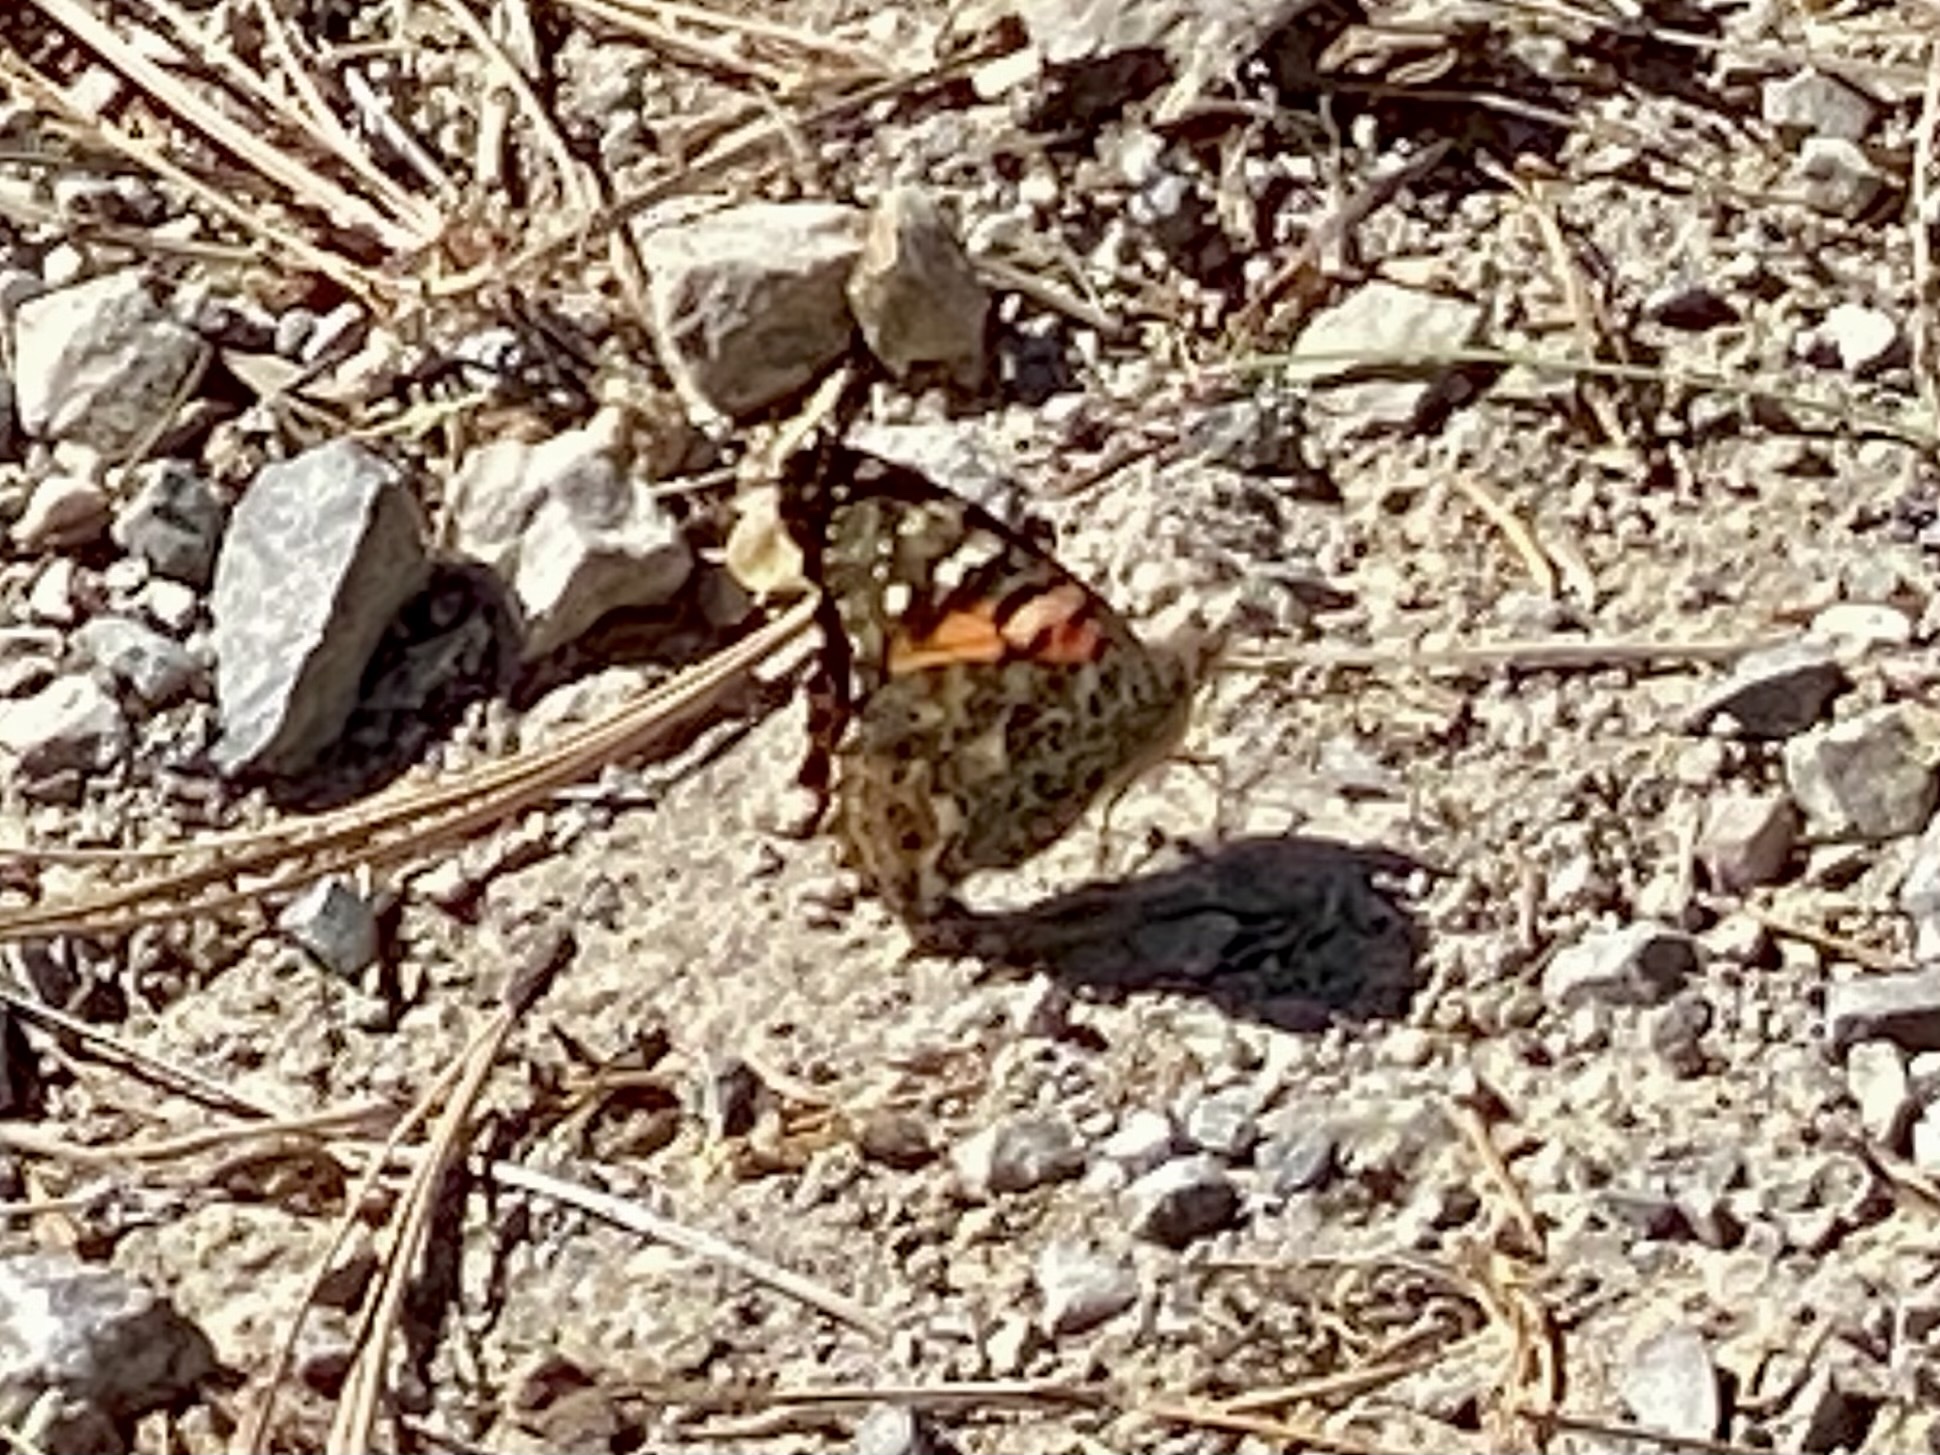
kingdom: Animalia
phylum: Arthropoda
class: Insecta
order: Lepidoptera
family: Nymphalidae
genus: Vanessa
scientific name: Vanessa cardui
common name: Painted lady
